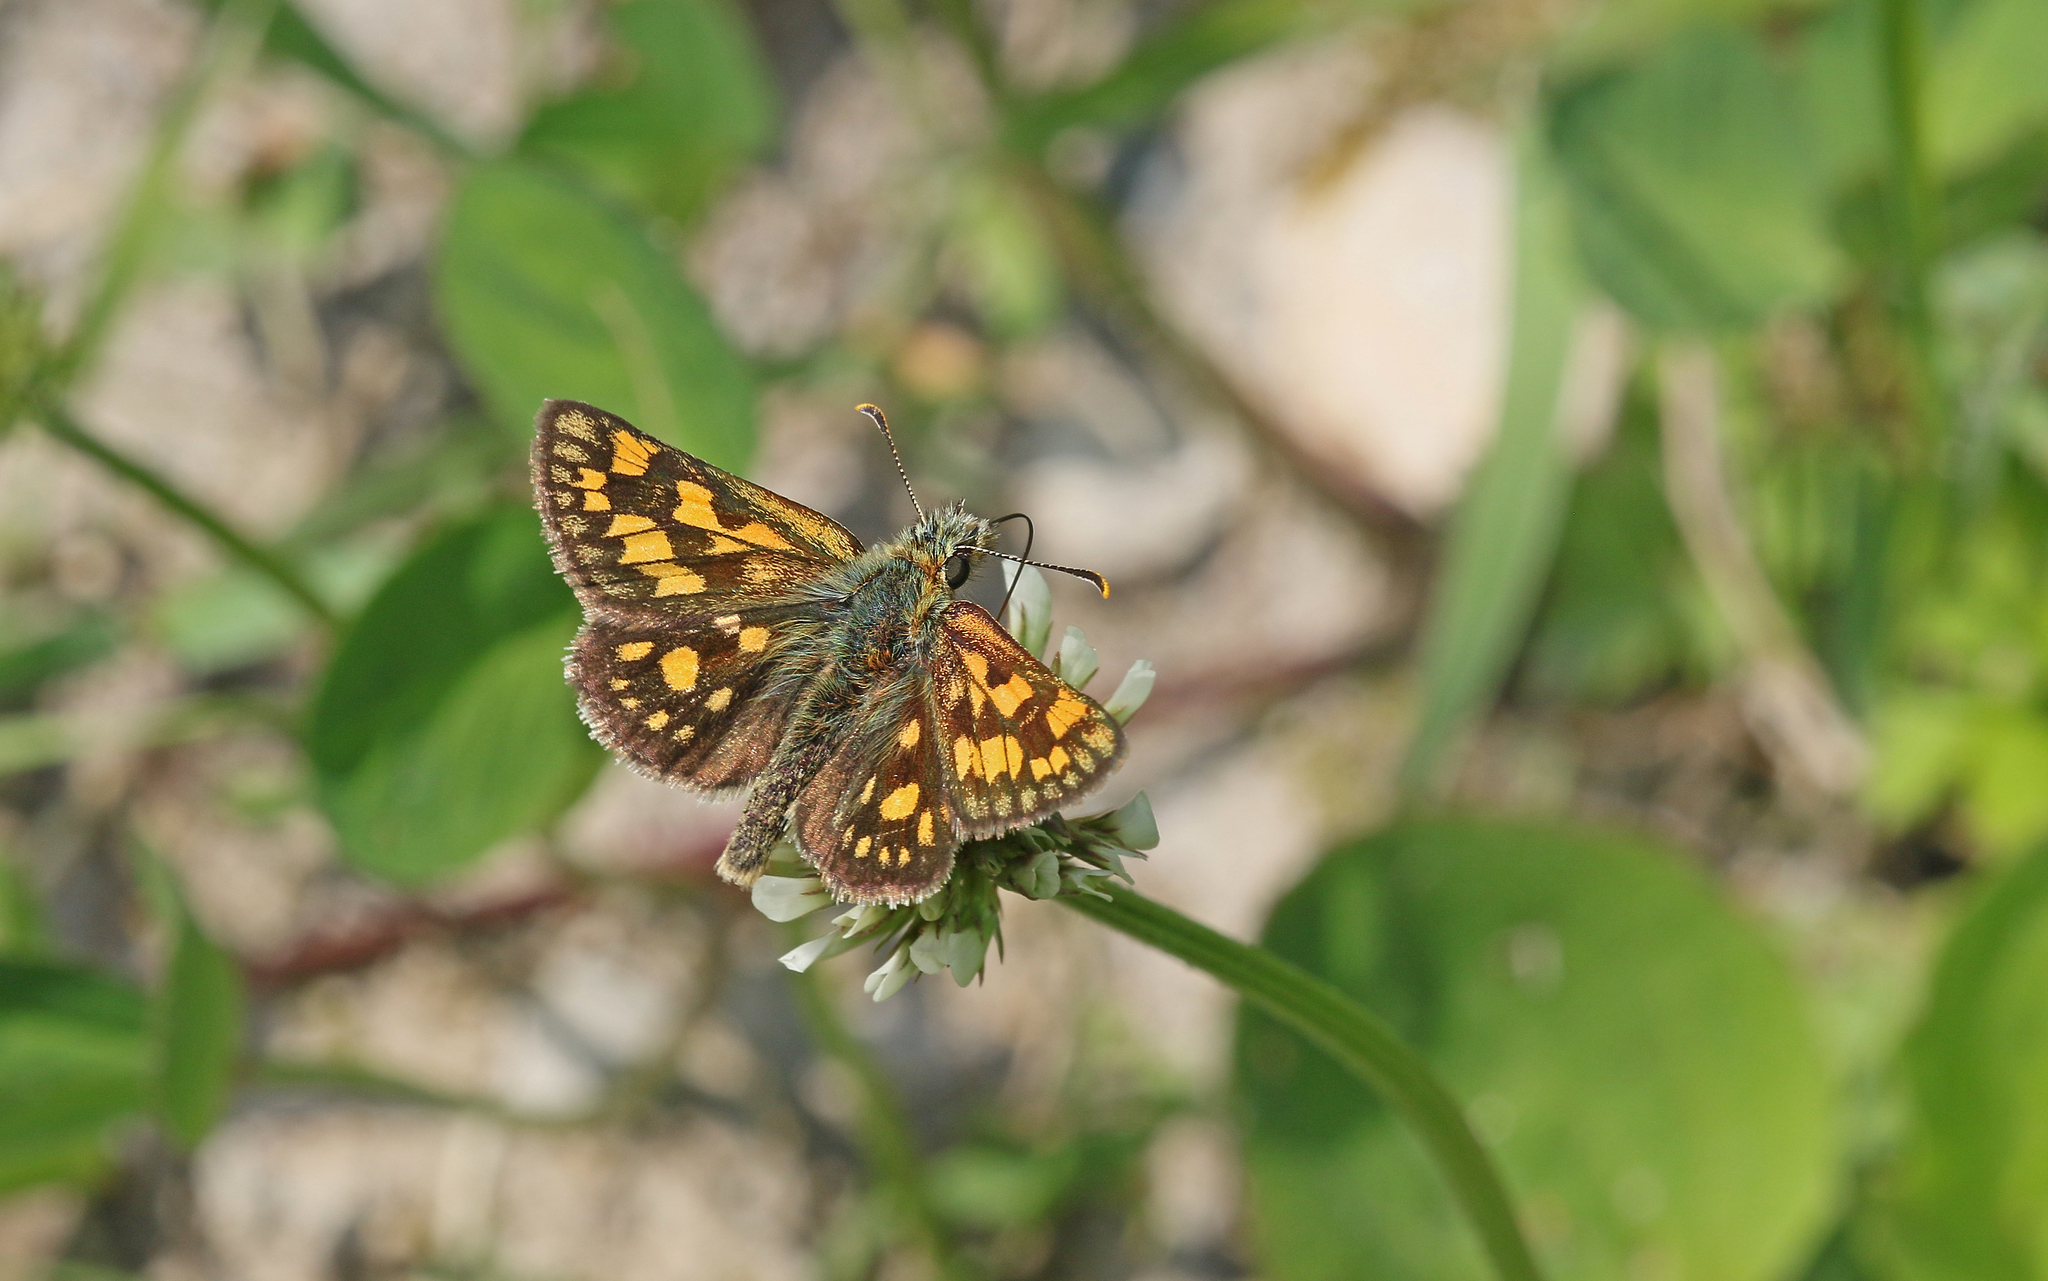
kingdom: Animalia
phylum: Arthropoda
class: Insecta
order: Lepidoptera
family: Hesperiidae
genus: Carterocephalus
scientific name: Carterocephalus palaemon
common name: Chequered skipper
